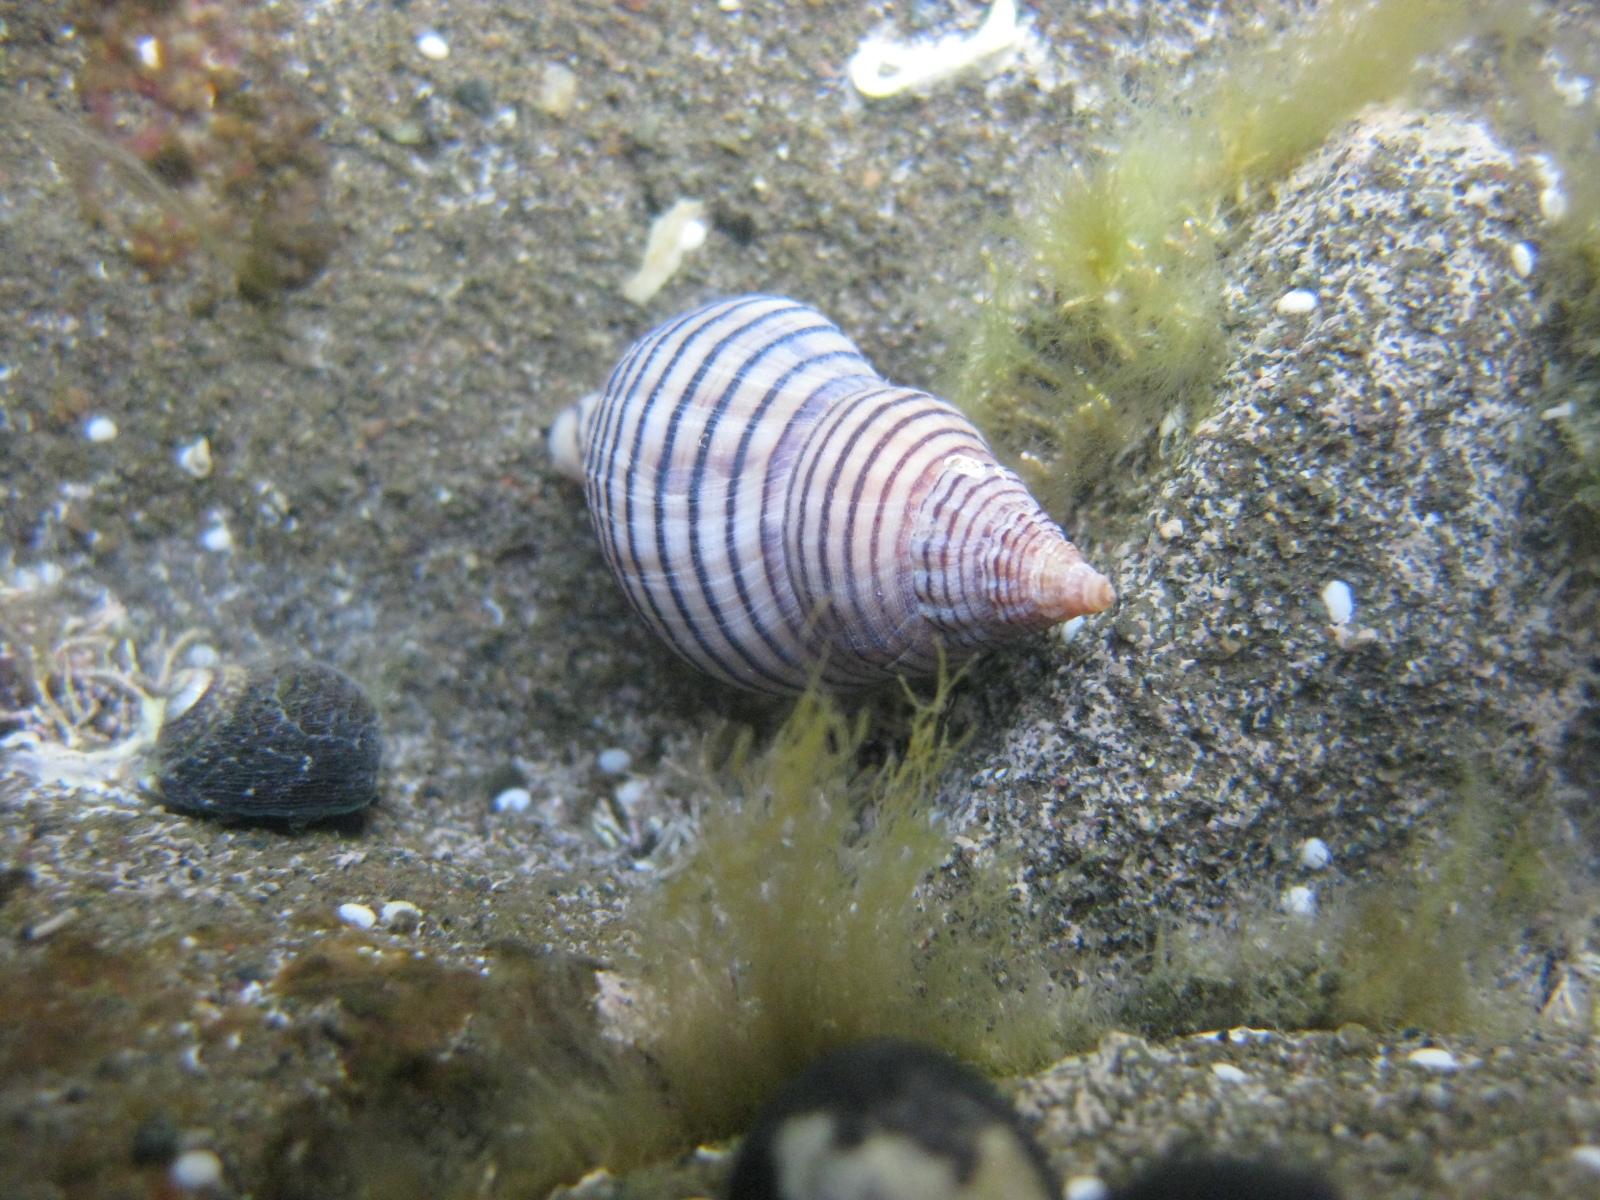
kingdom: Animalia
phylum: Mollusca
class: Gastropoda
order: Neogastropoda
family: Tudiclidae
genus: Buccinulum
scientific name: Buccinulum linea
